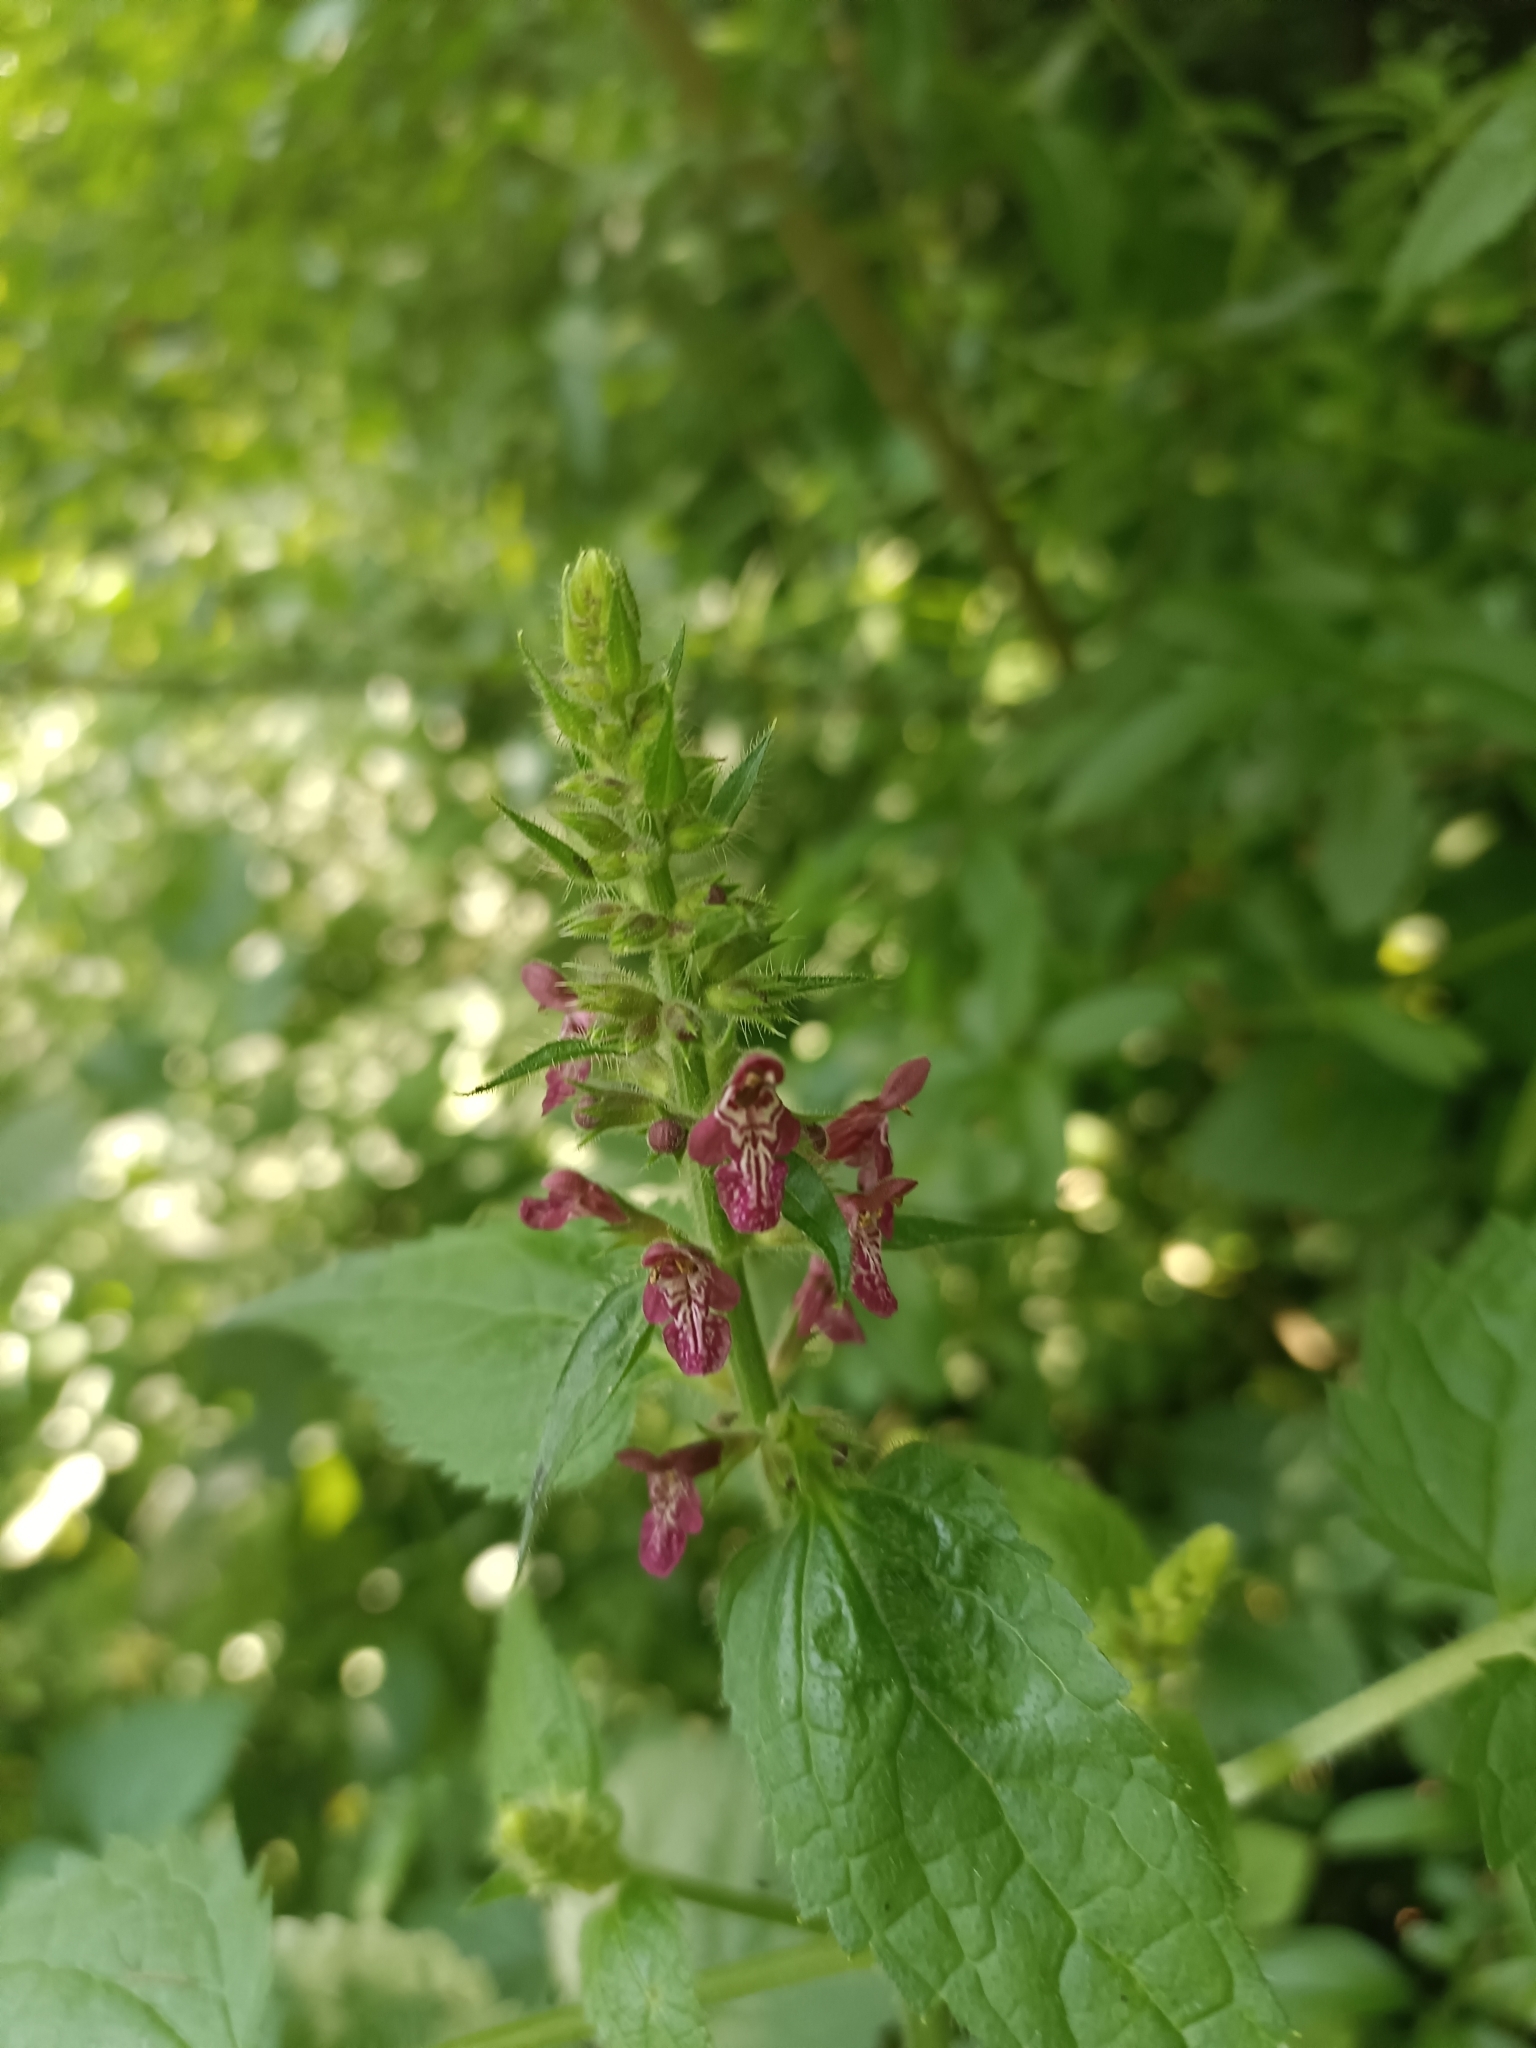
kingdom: Plantae
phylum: Tracheophyta
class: Magnoliopsida
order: Lamiales
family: Lamiaceae
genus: Stachys
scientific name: Stachys sylvatica
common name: Hedge woundwort
